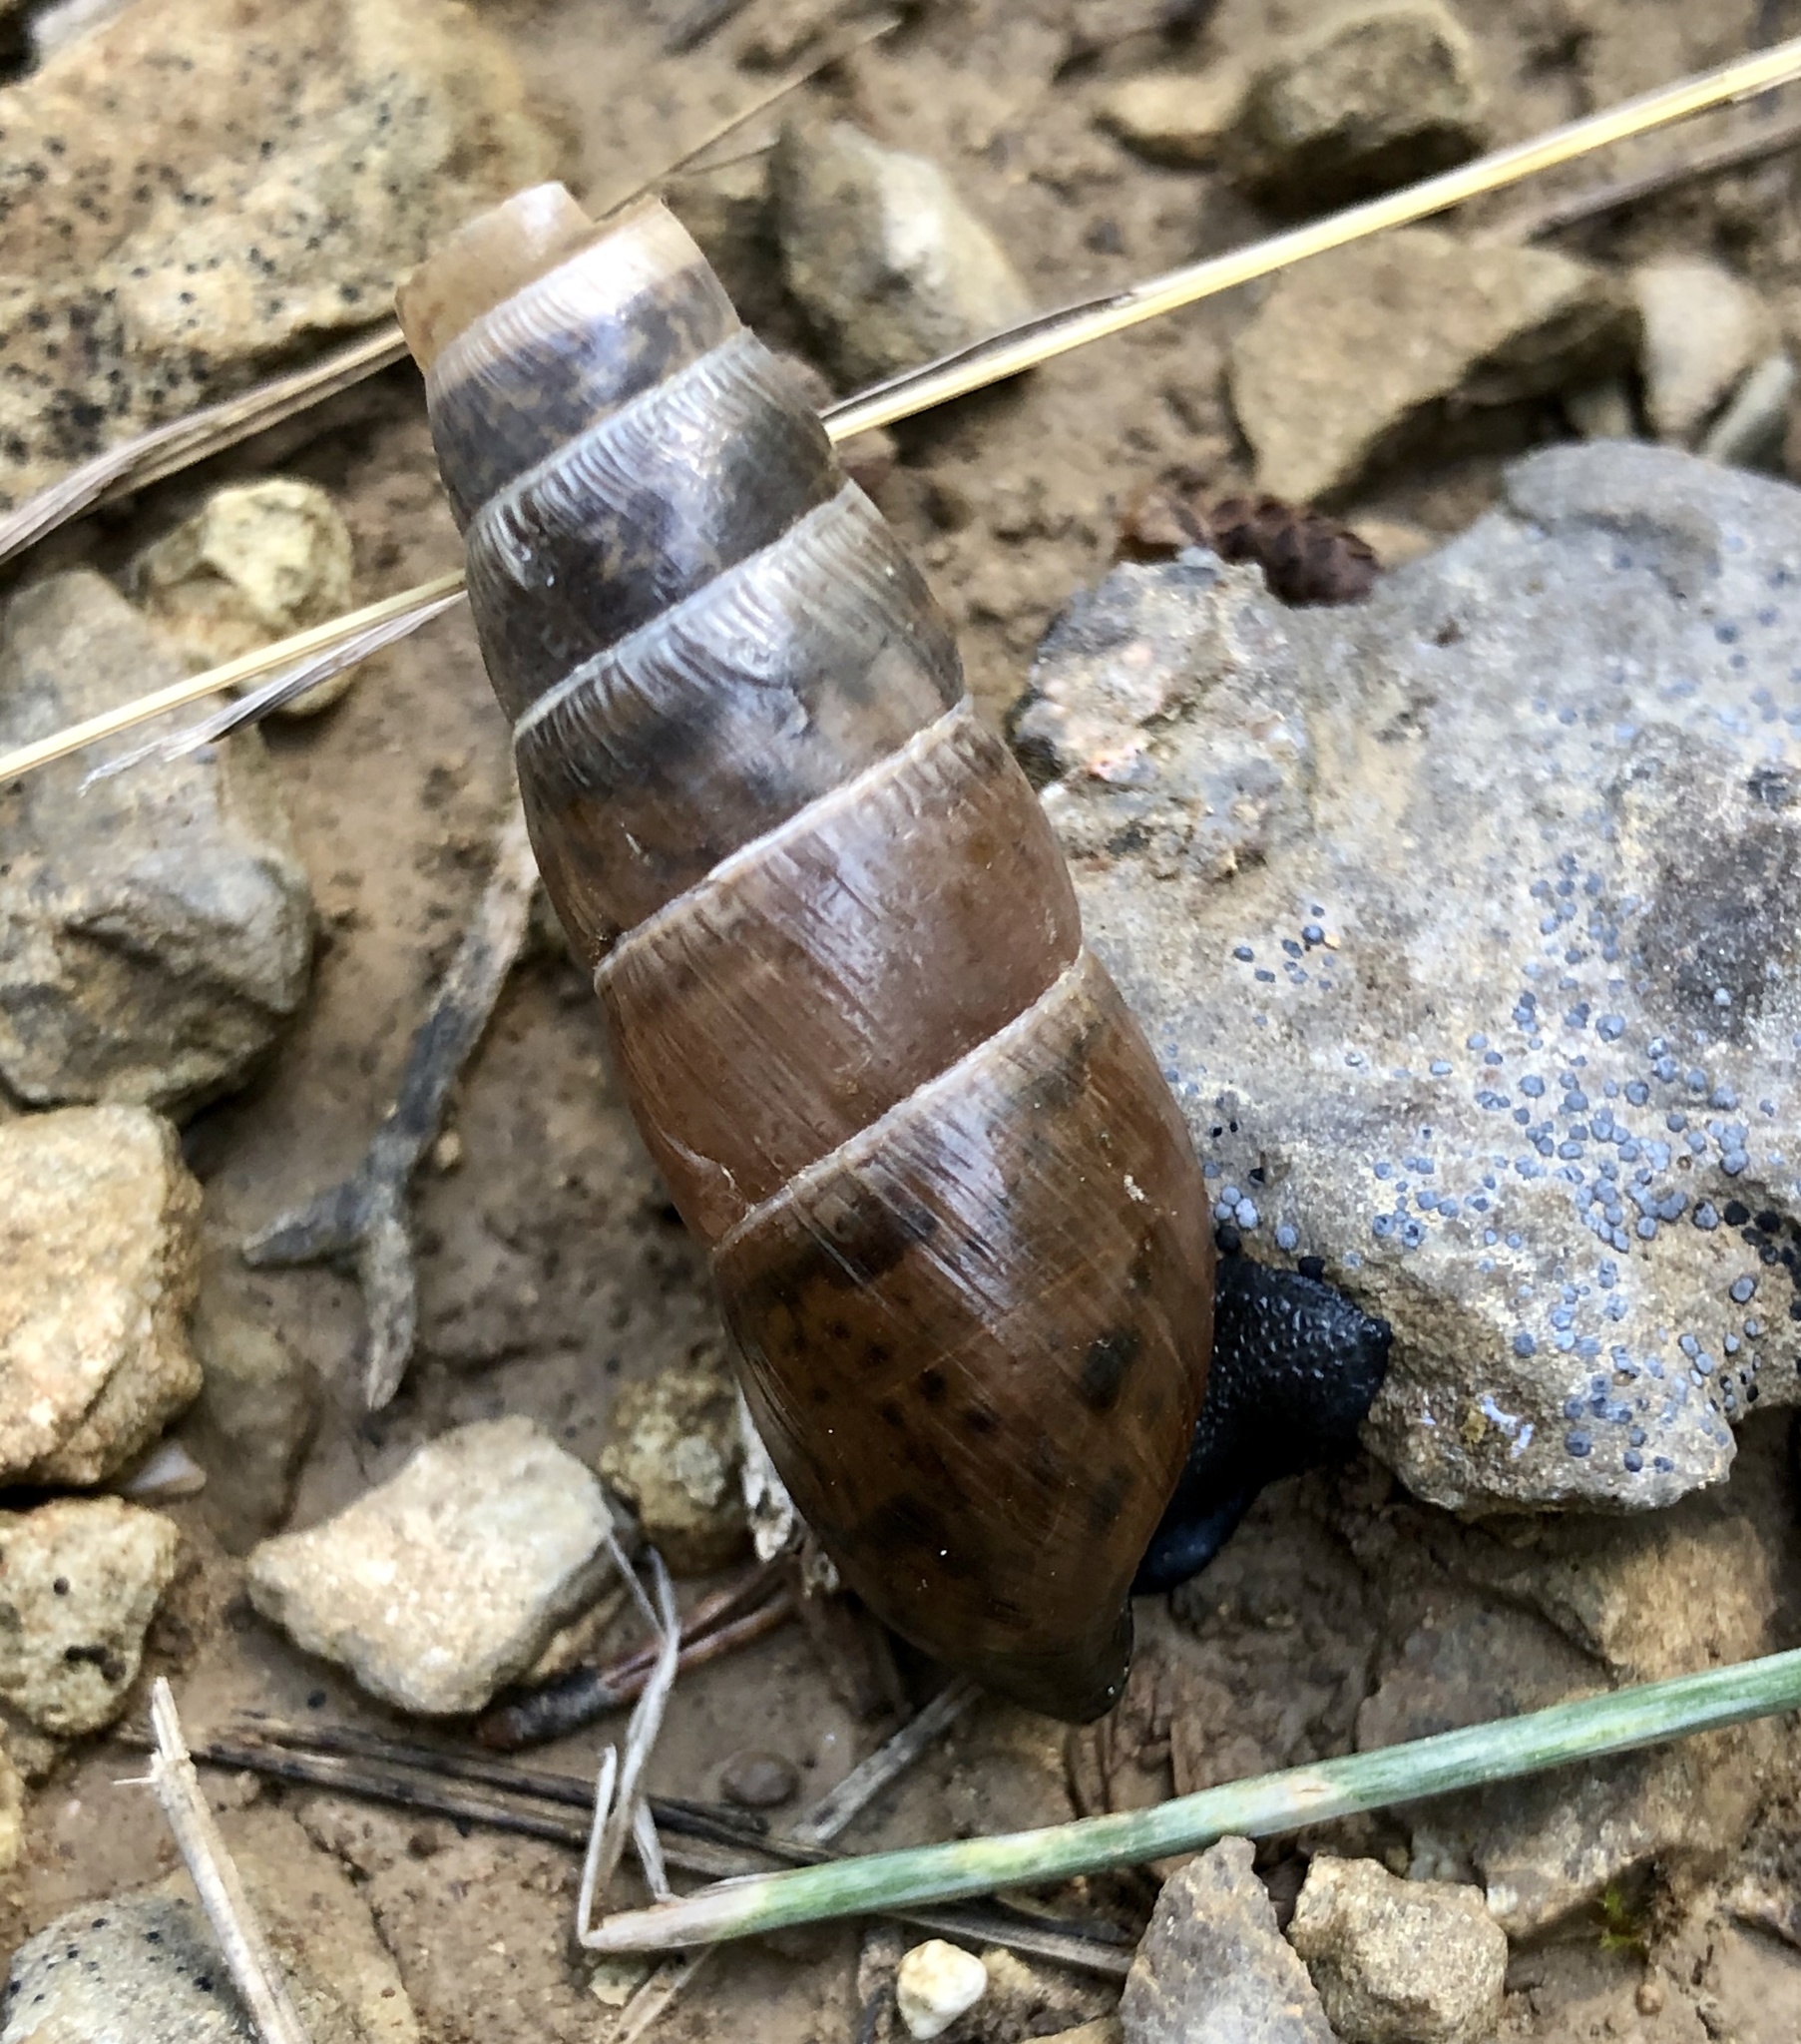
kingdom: Animalia
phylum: Mollusca
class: Gastropoda
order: Stylommatophora
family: Achatinidae
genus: Rumina
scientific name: Rumina decollata
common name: Decollate snail
